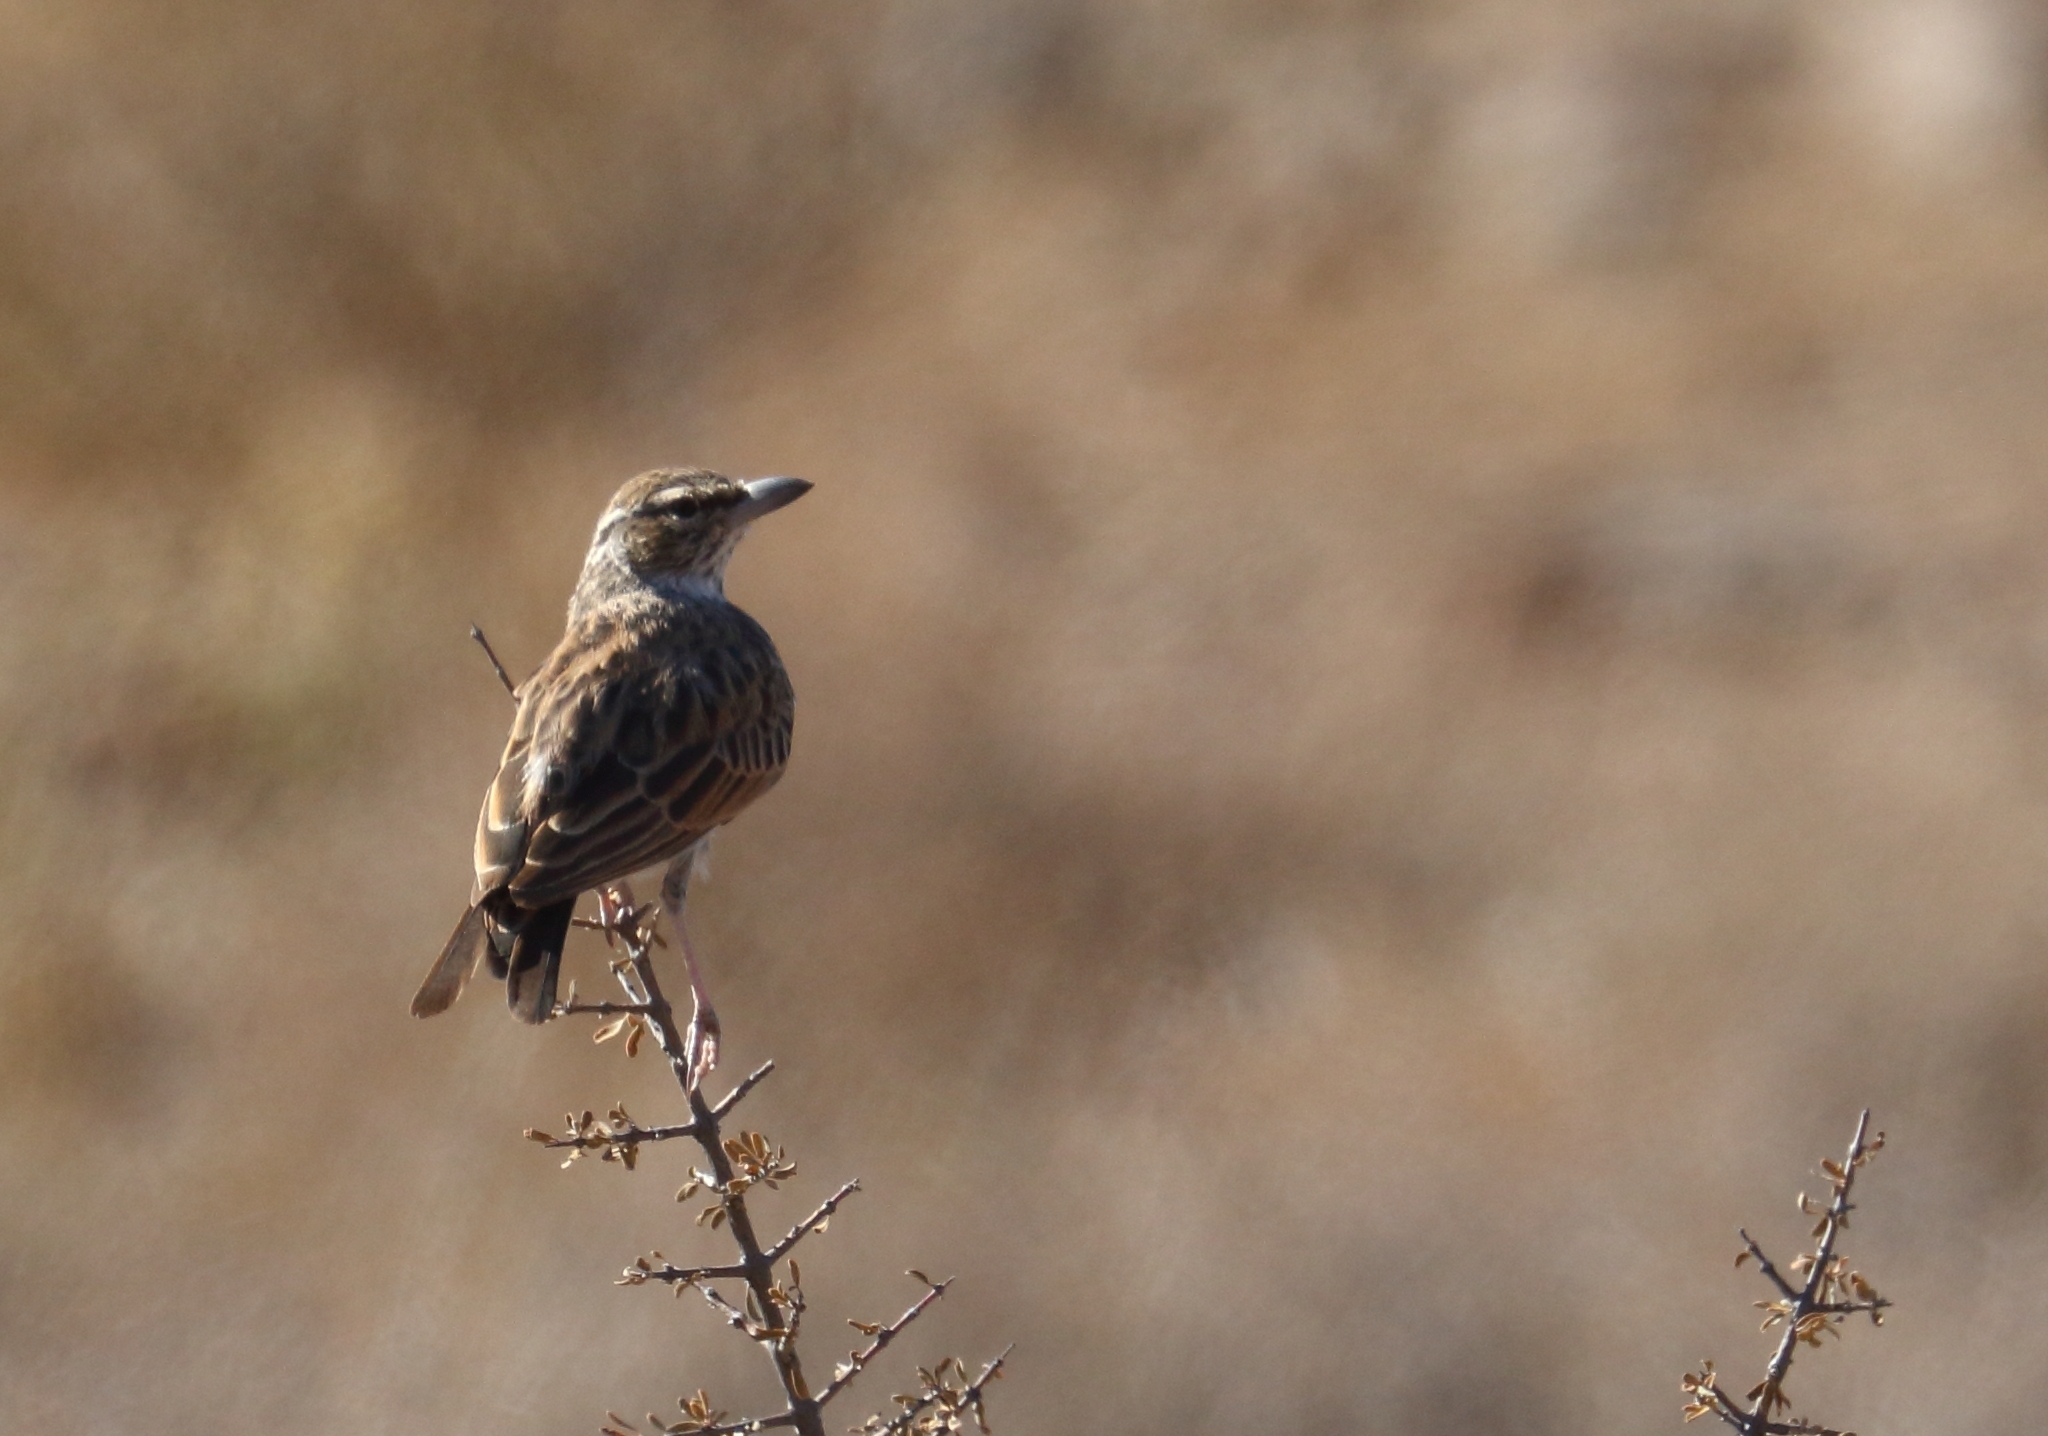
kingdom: Animalia
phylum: Chordata
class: Aves
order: Passeriformes
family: Alaudidae
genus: Calendulauda
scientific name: Calendulauda sabota
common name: Sabota lark
